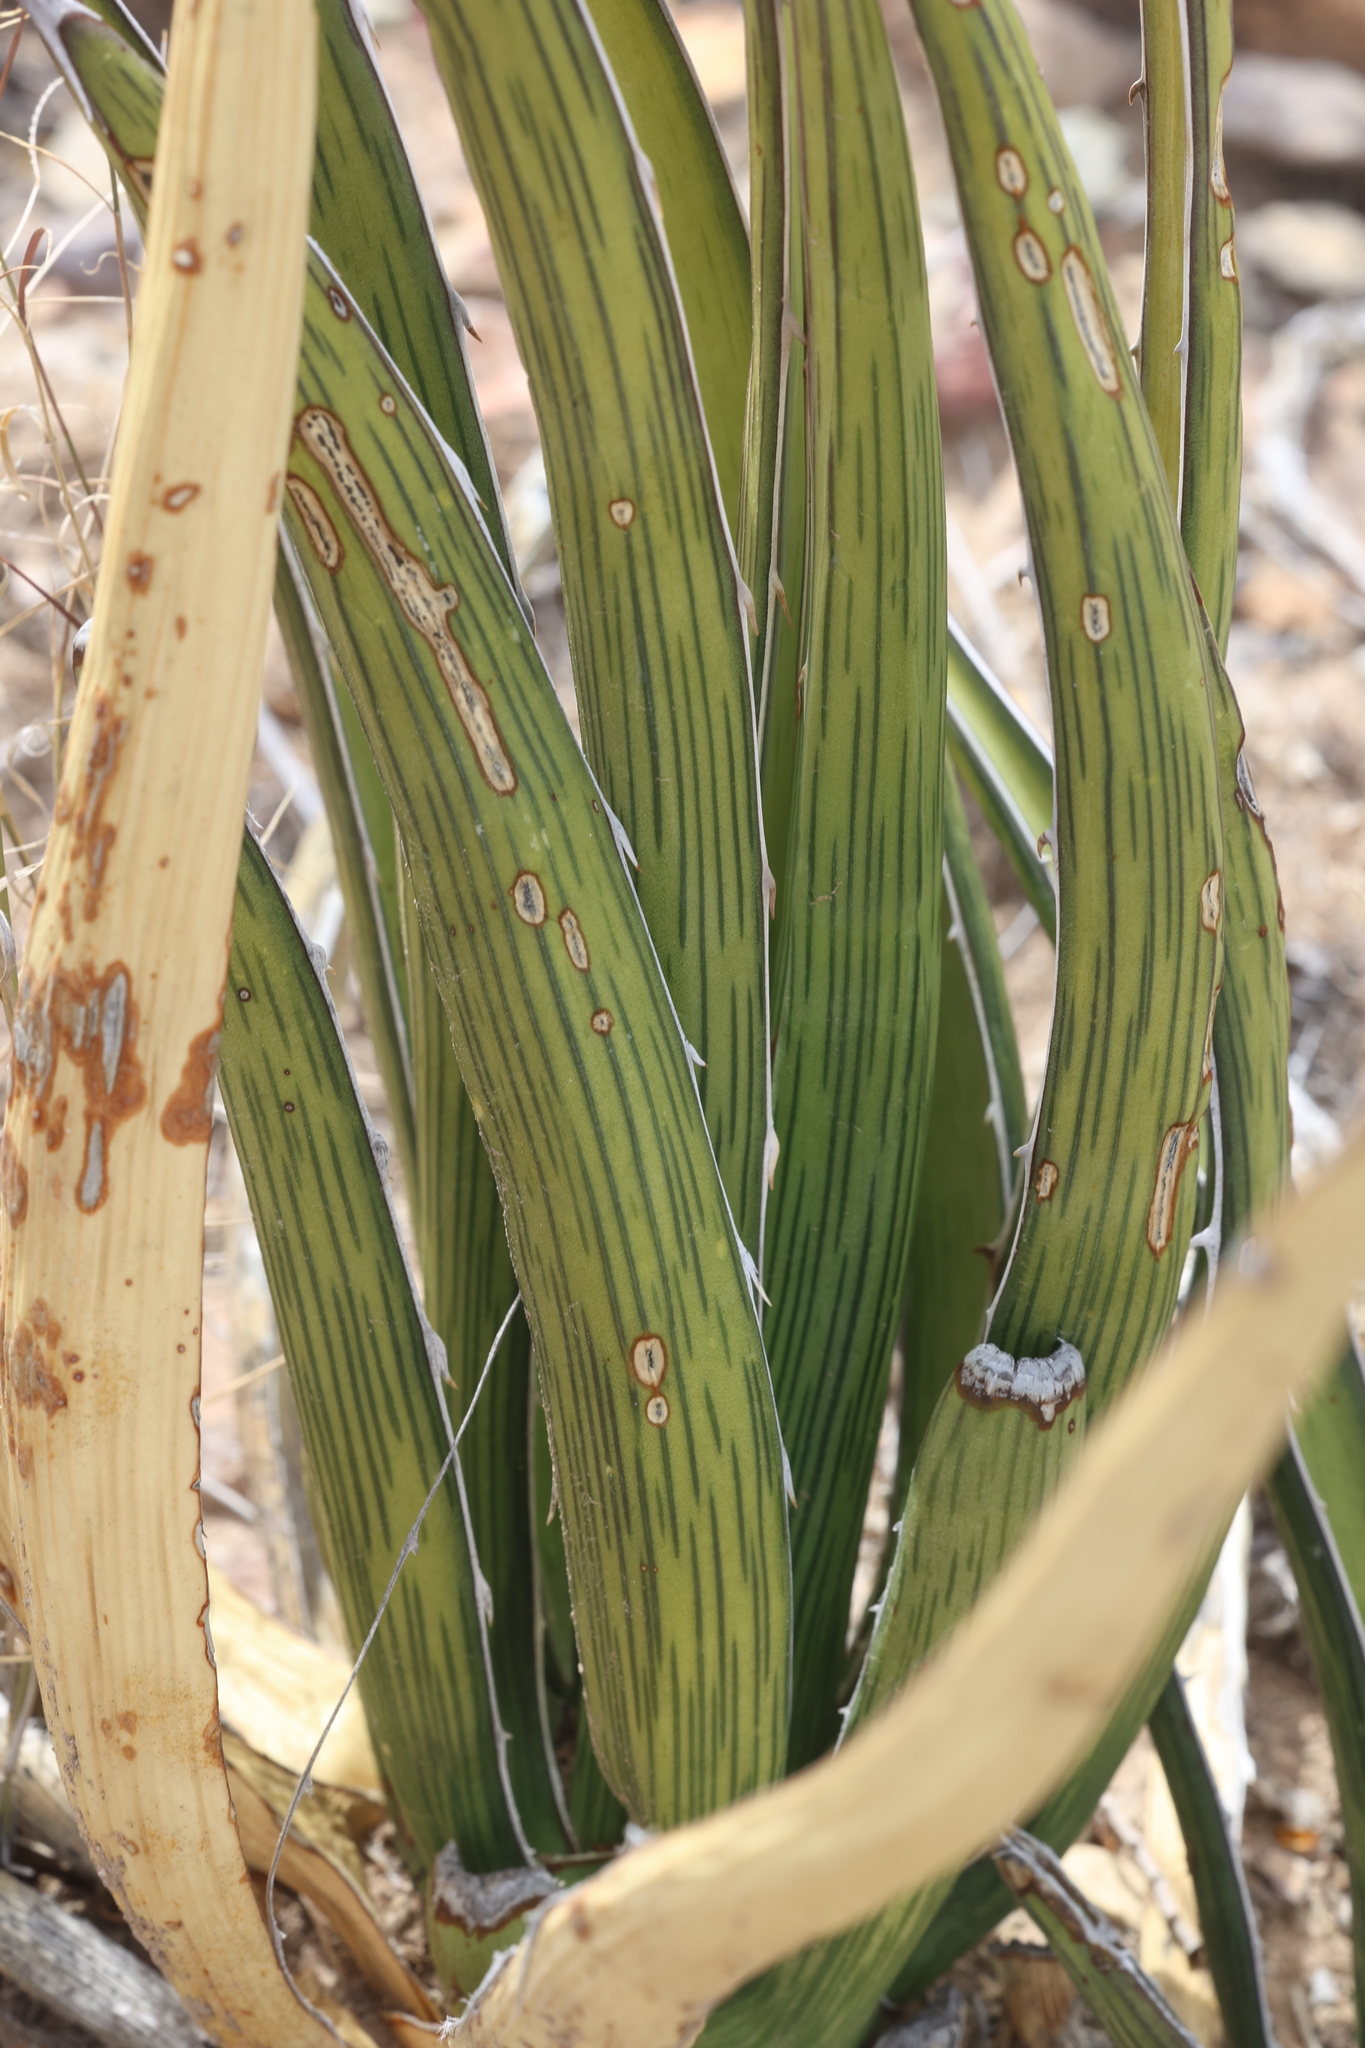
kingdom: Plantae
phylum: Tracheophyta
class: Liliopsida
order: Asparagales
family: Asparagaceae
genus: Agave
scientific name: Agave lechuguilla
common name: Lecheguilla agave
